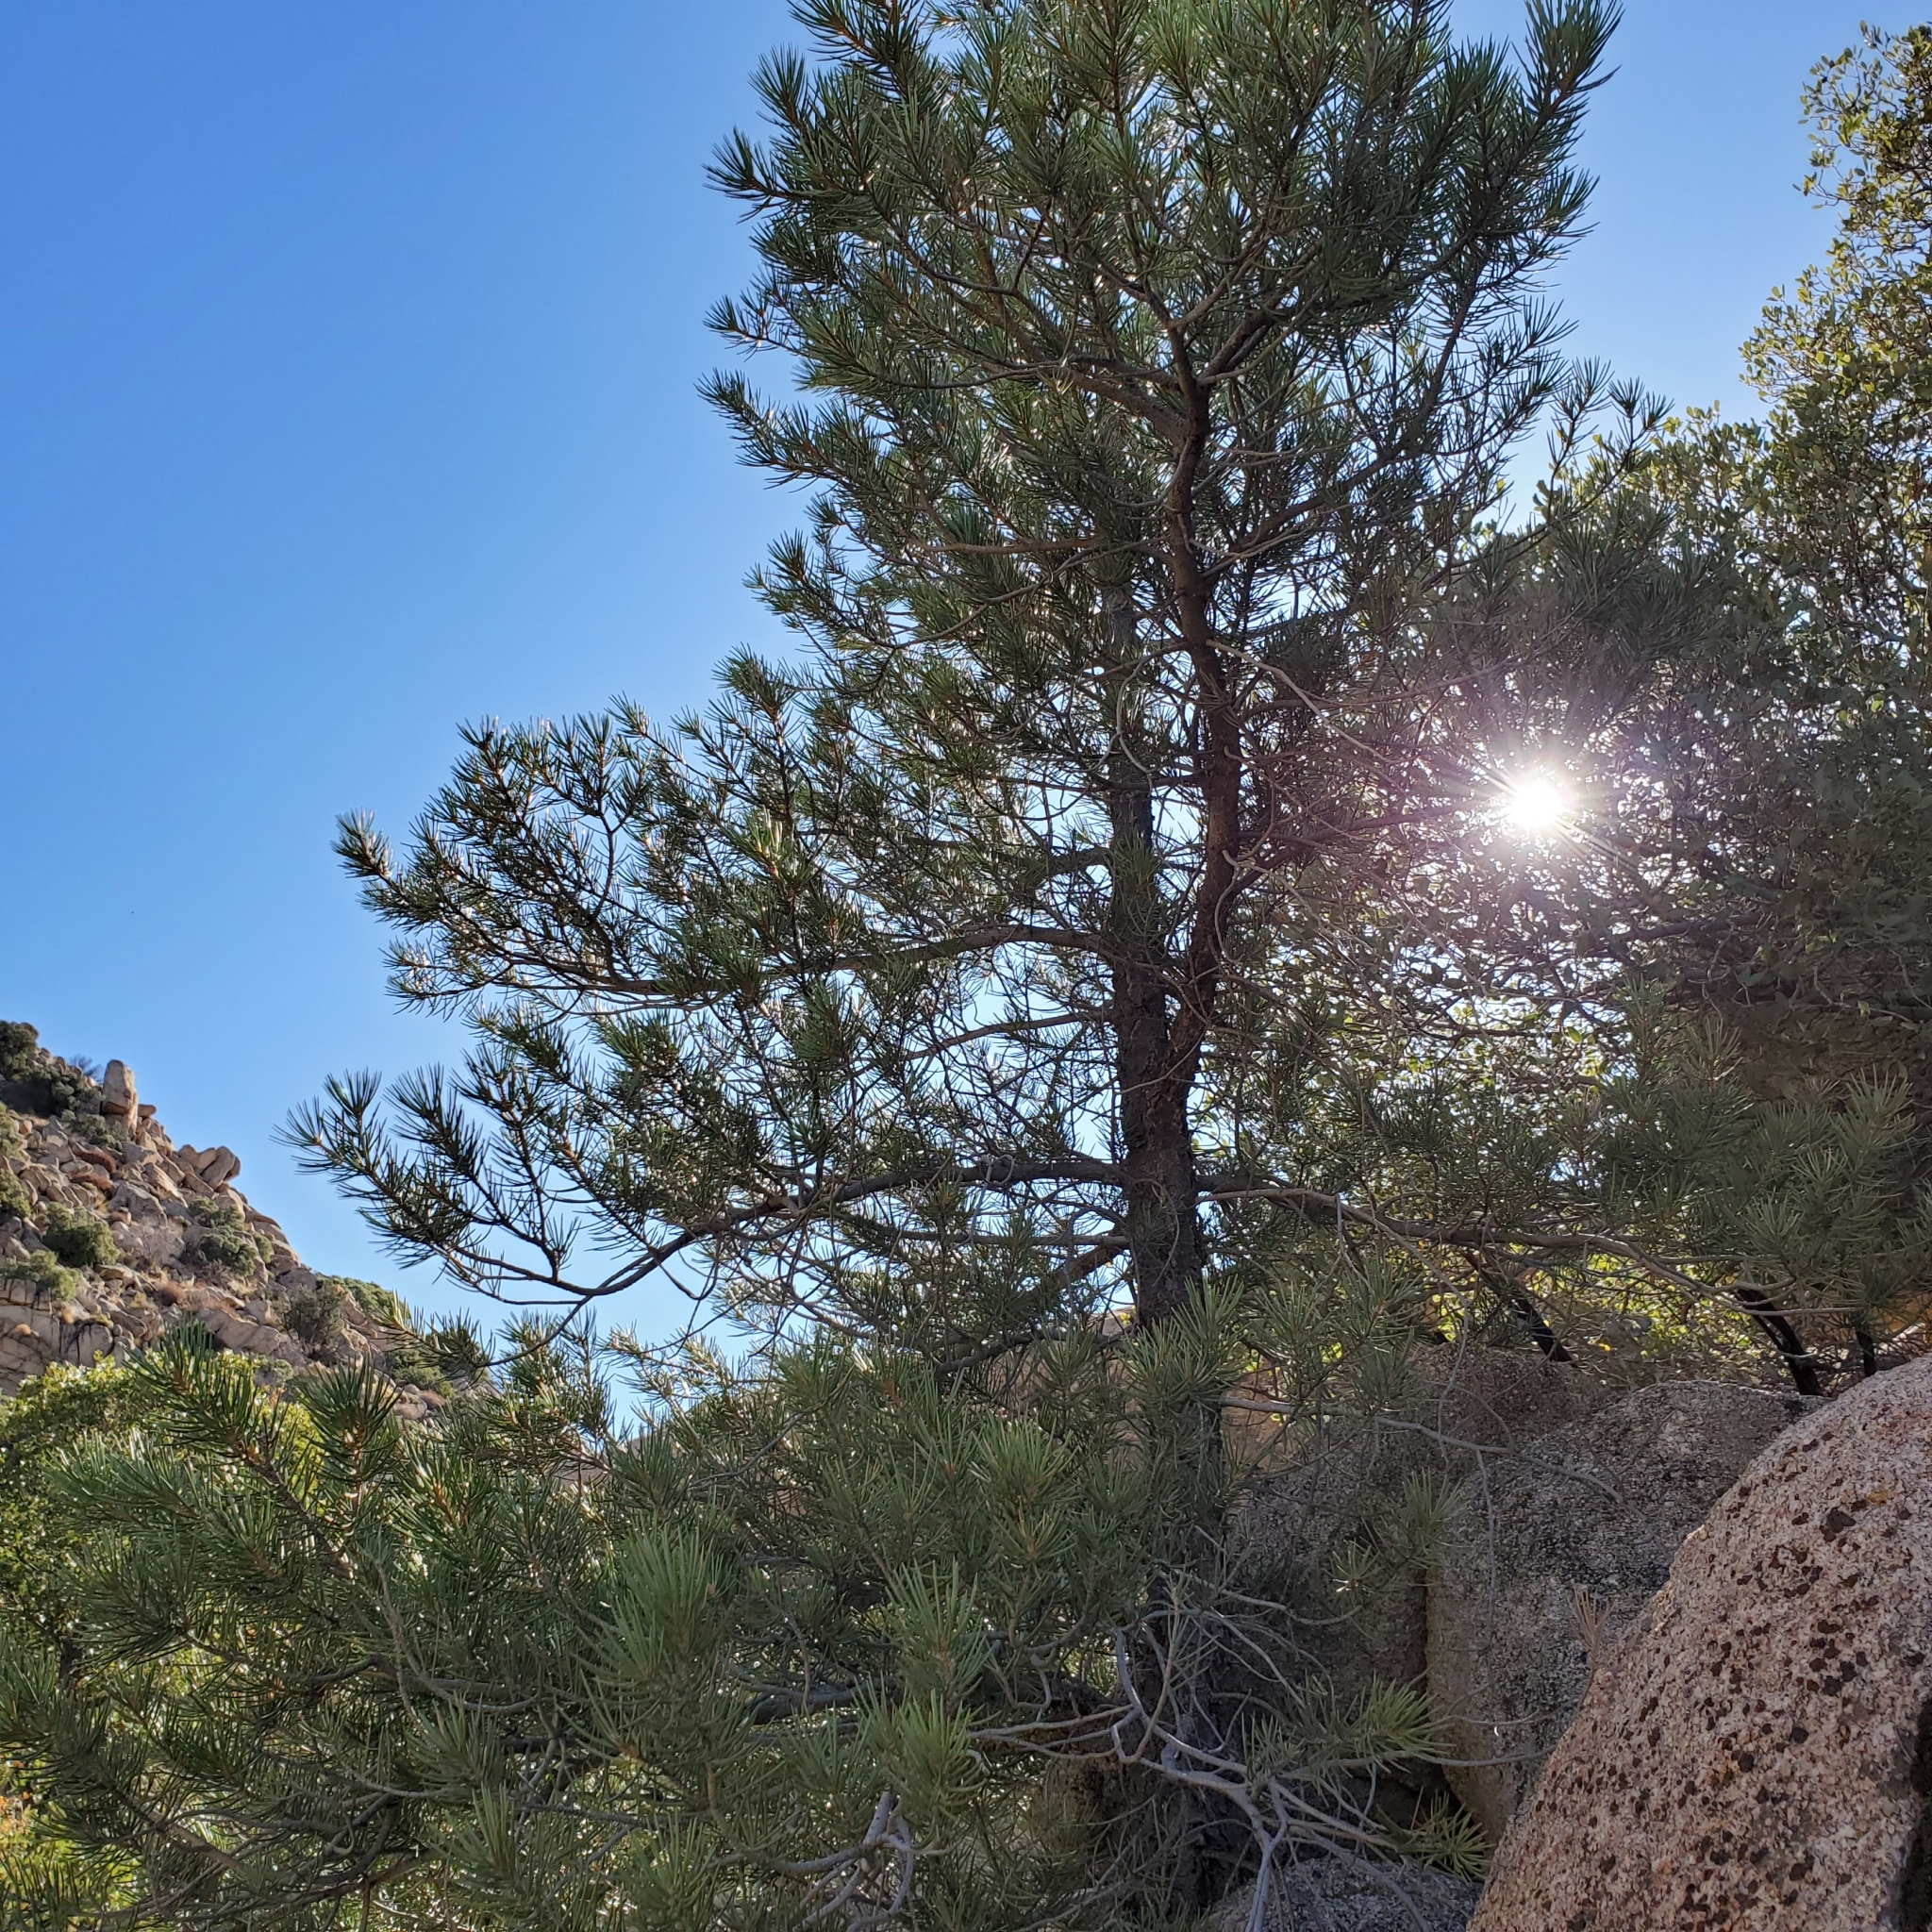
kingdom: Plantae
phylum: Tracheophyta
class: Pinopsida
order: Pinales
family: Pinaceae
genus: Pinus
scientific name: Pinus monophylla
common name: One-leaved nut pine
